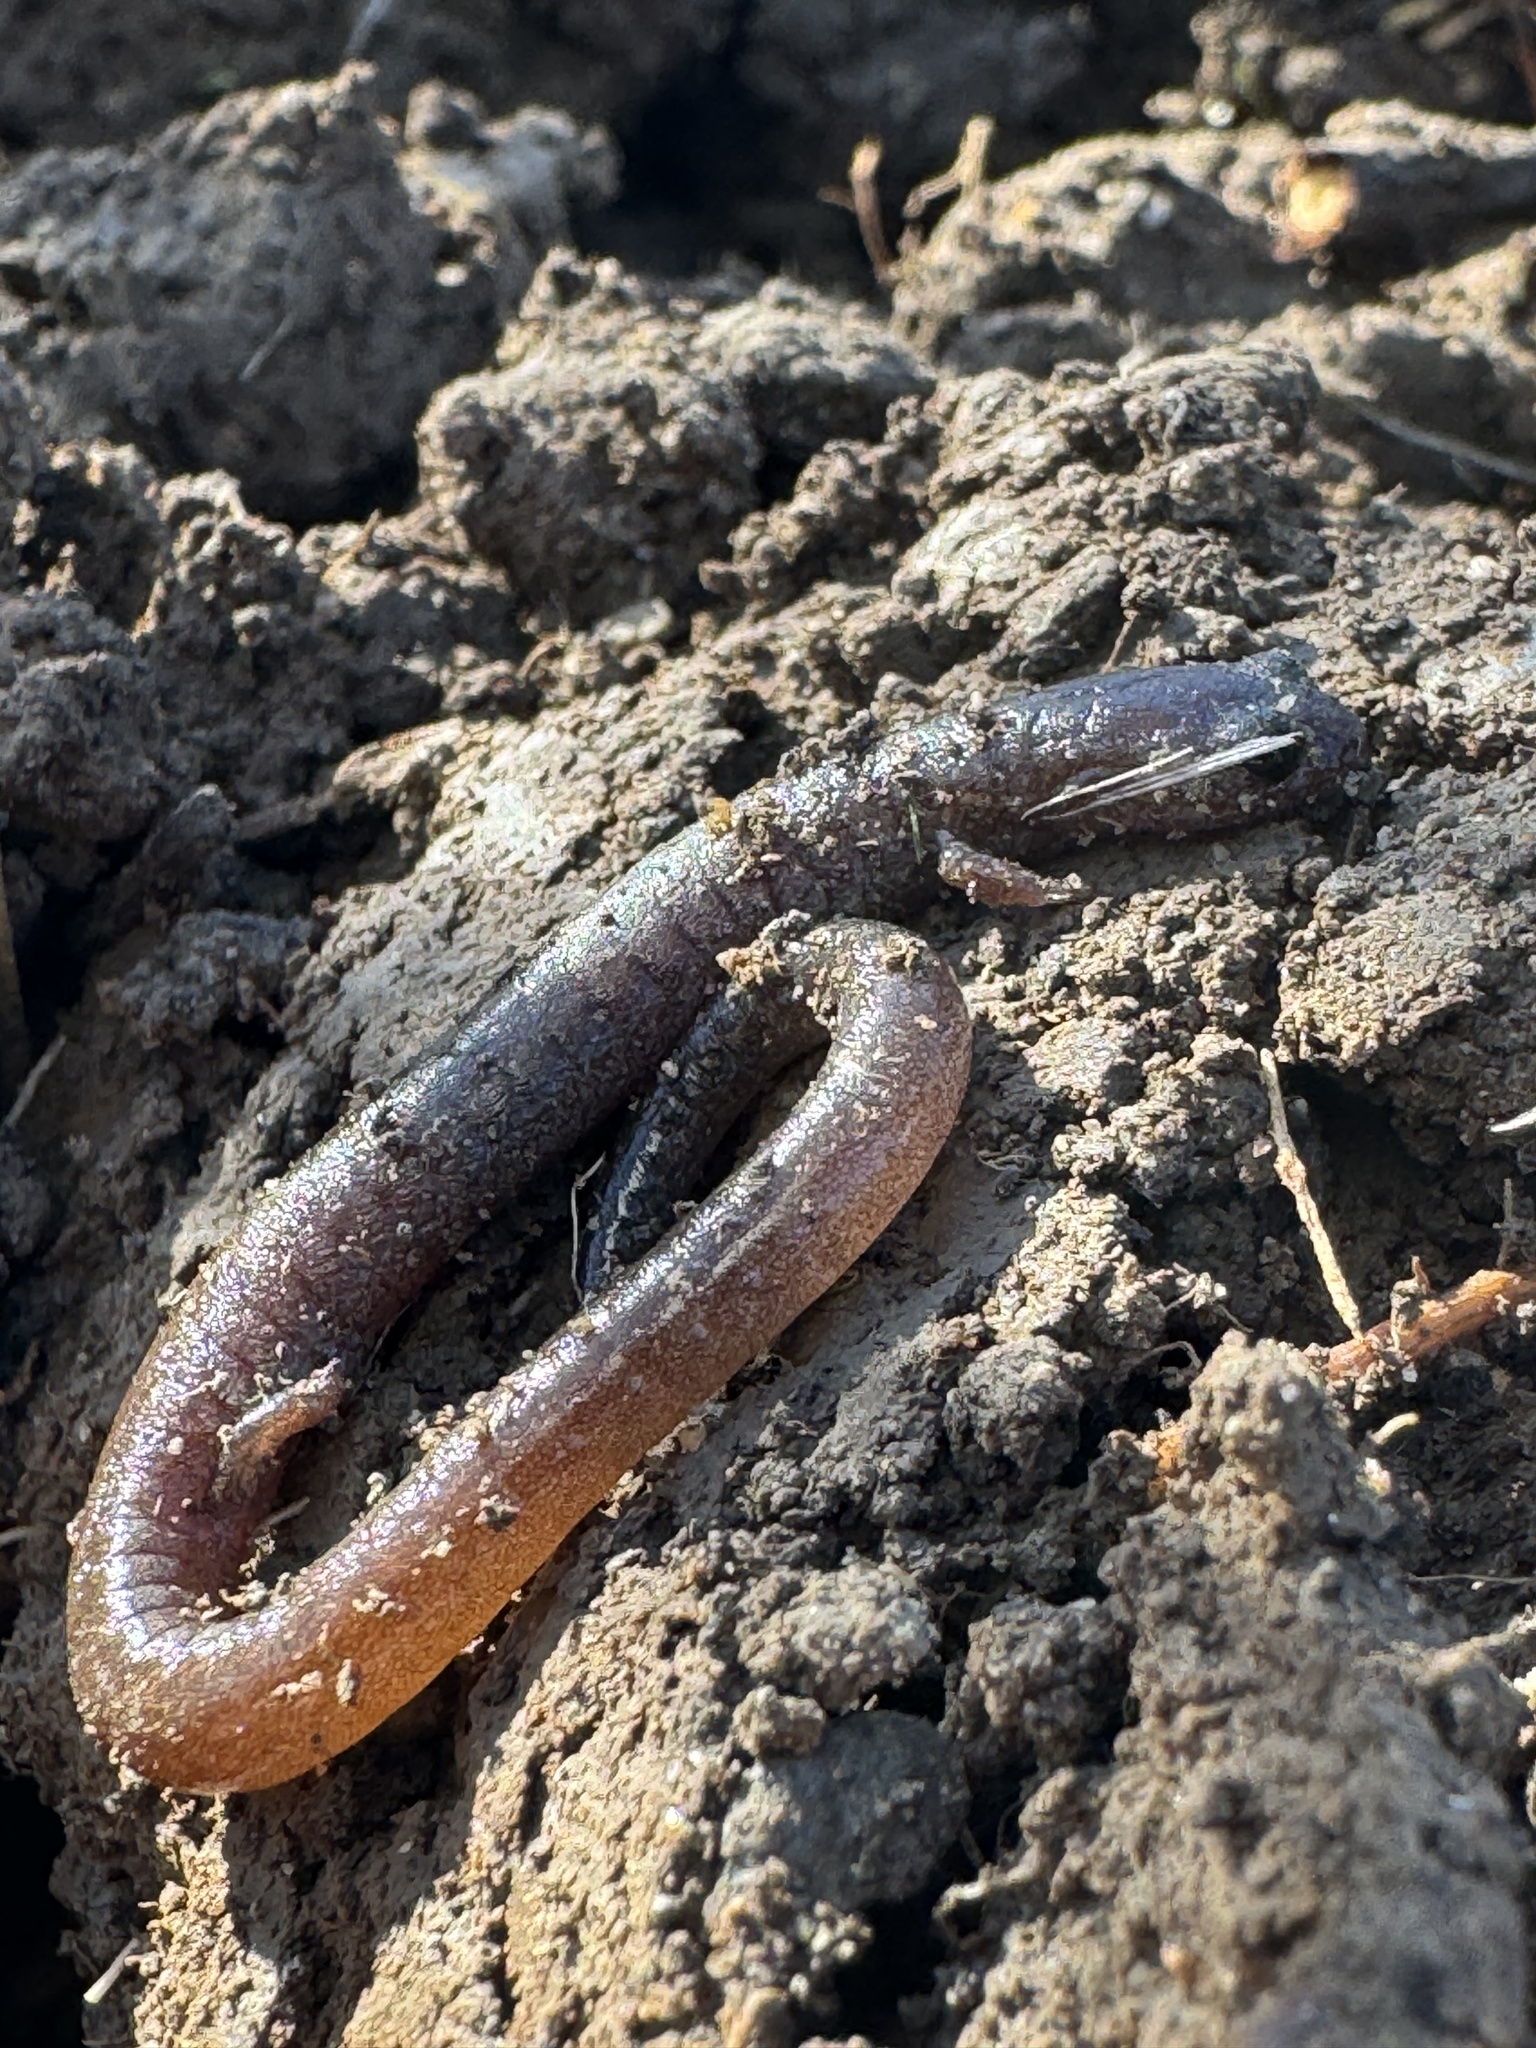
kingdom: Animalia
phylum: Chordata
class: Amphibia
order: Caudata
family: Plethodontidae
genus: Batrachoseps
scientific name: Batrachoseps major
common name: Garden slender salamander
